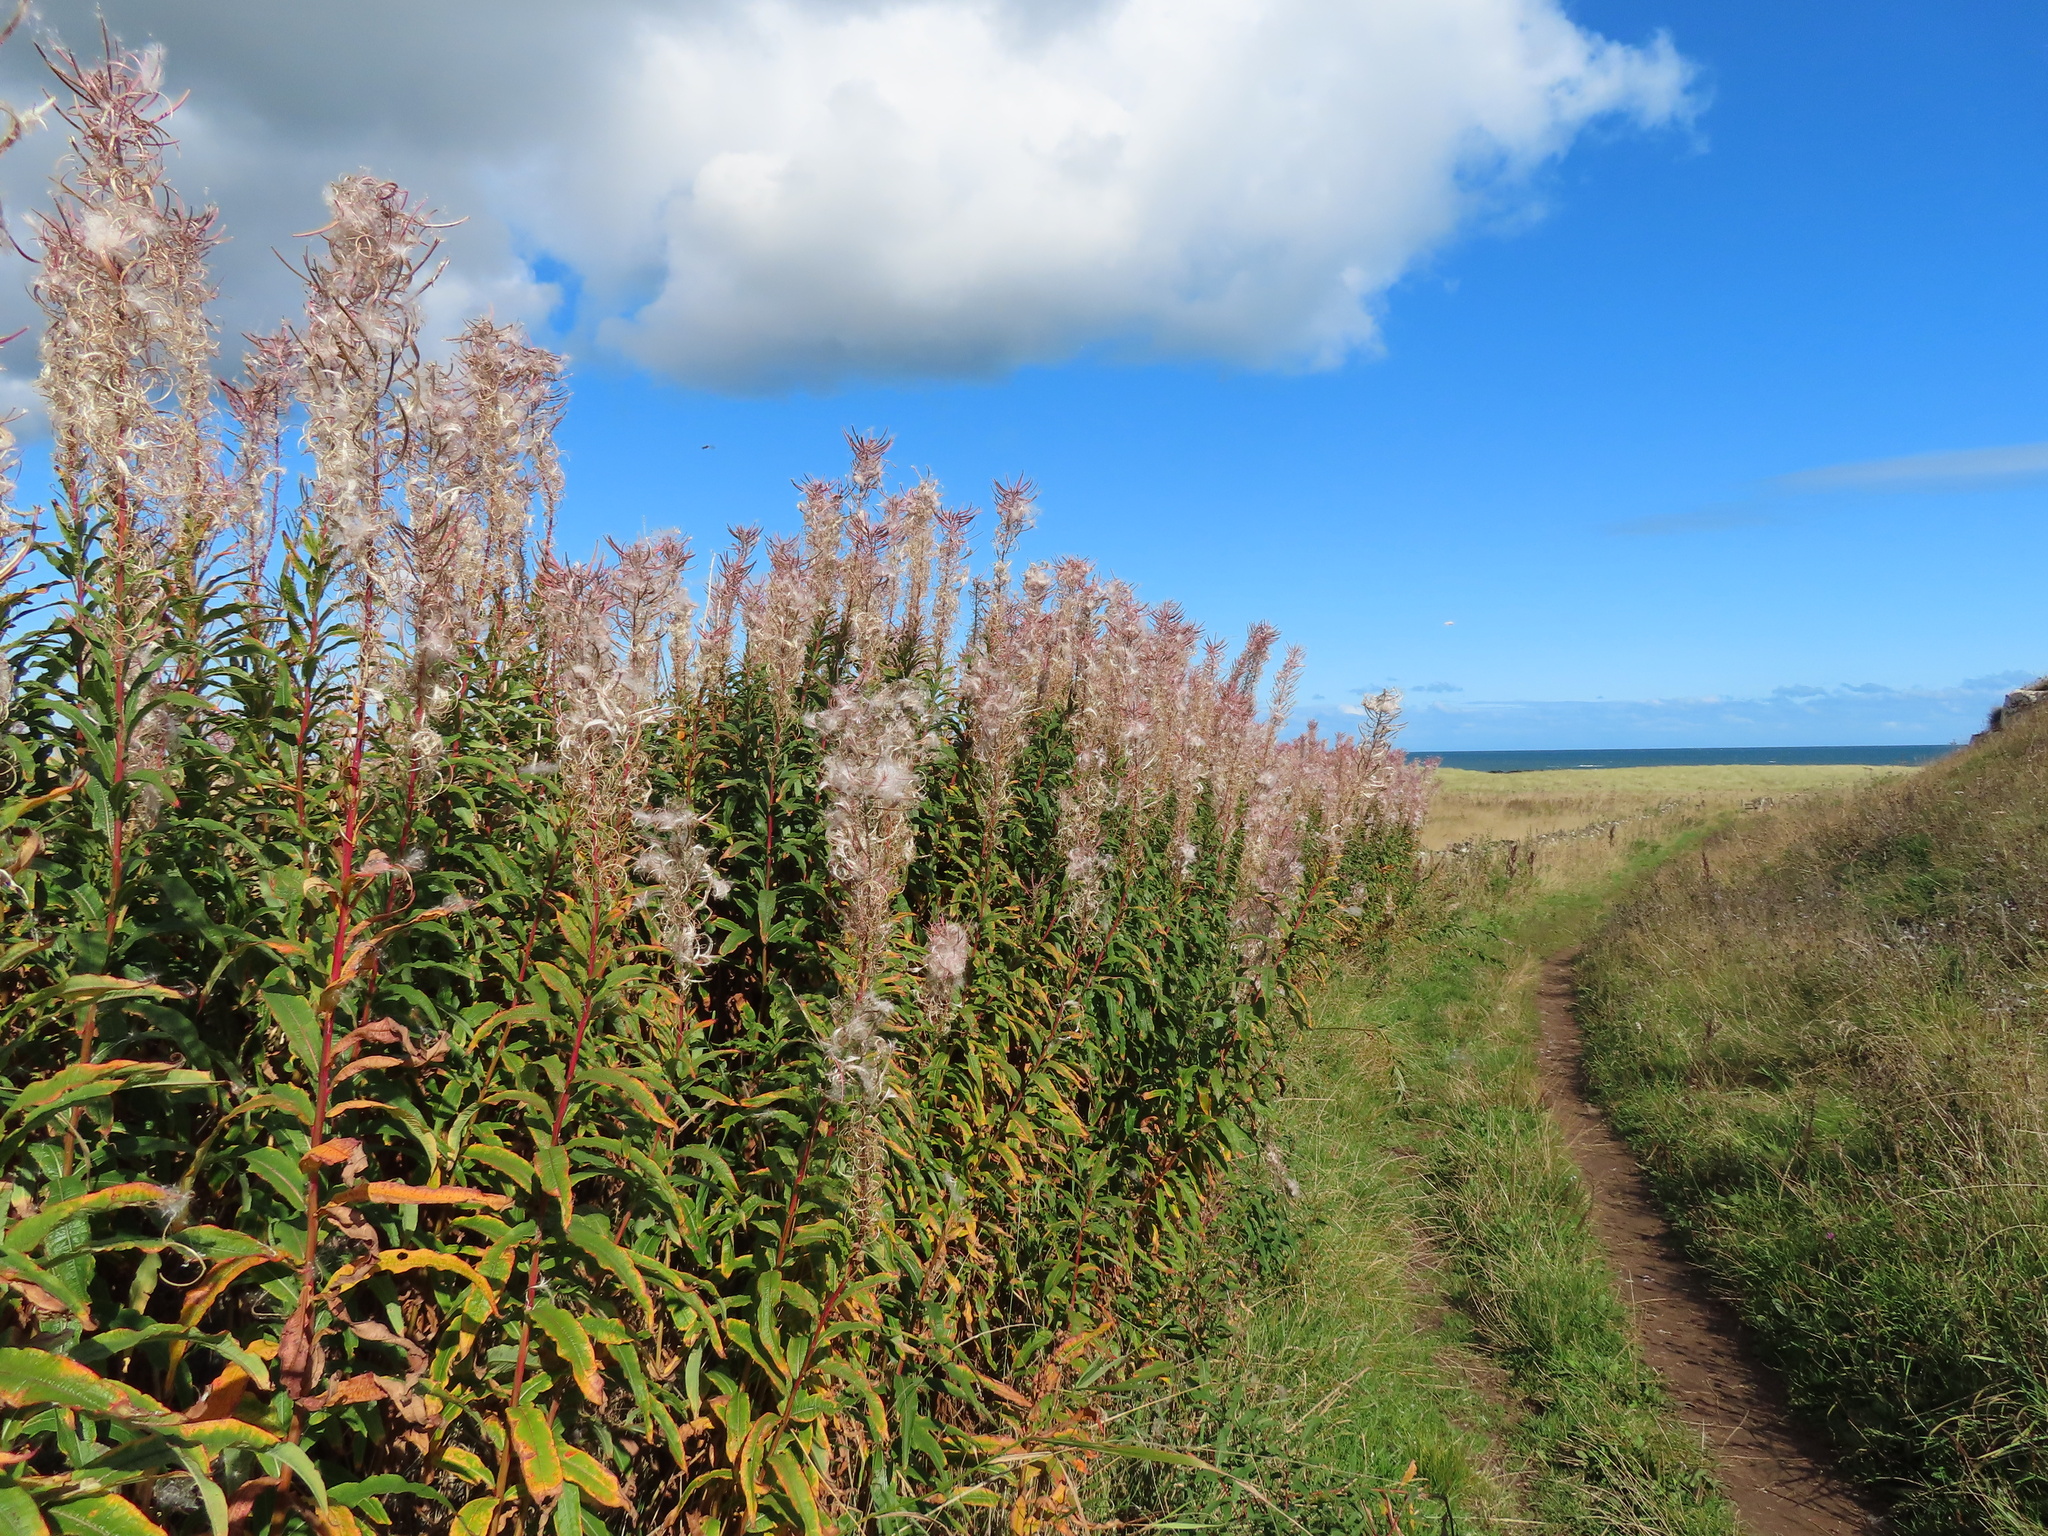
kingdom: Plantae
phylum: Tracheophyta
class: Magnoliopsida
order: Myrtales
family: Onagraceae
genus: Chamaenerion
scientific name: Chamaenerion angustifolium
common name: Fireweed
